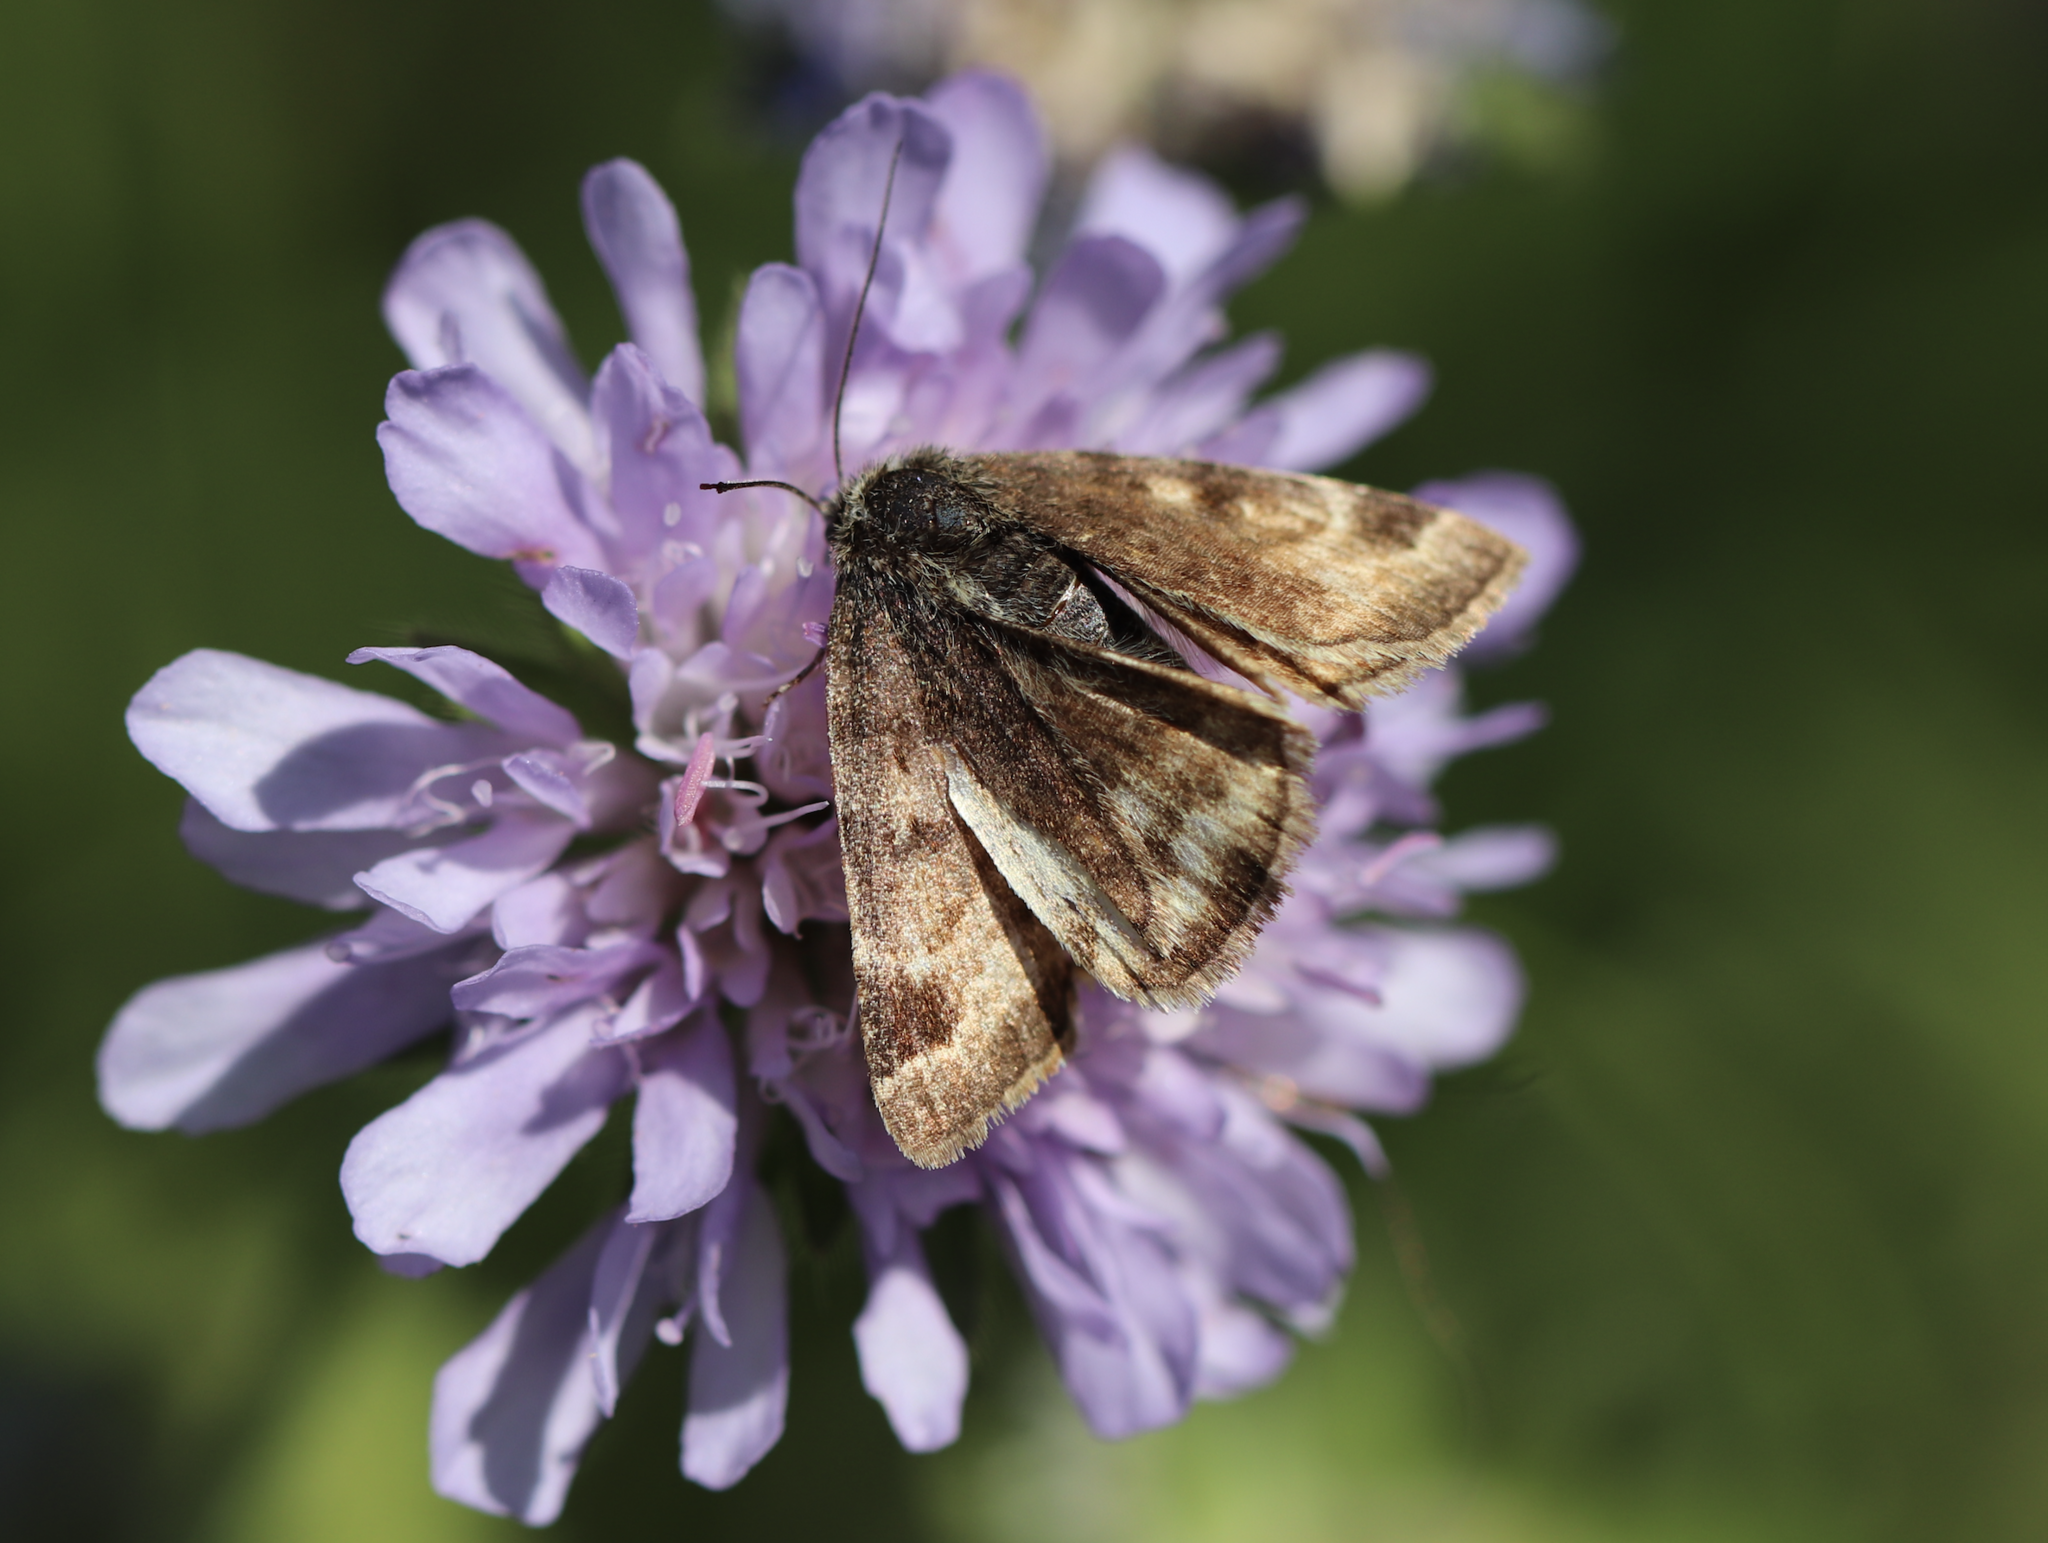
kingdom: Animalia
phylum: Arthropoda
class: Insecta
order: Lepidoptera
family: Erebidae
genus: Euclidia
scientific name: Euclidia glyphica
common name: Burnet companion
